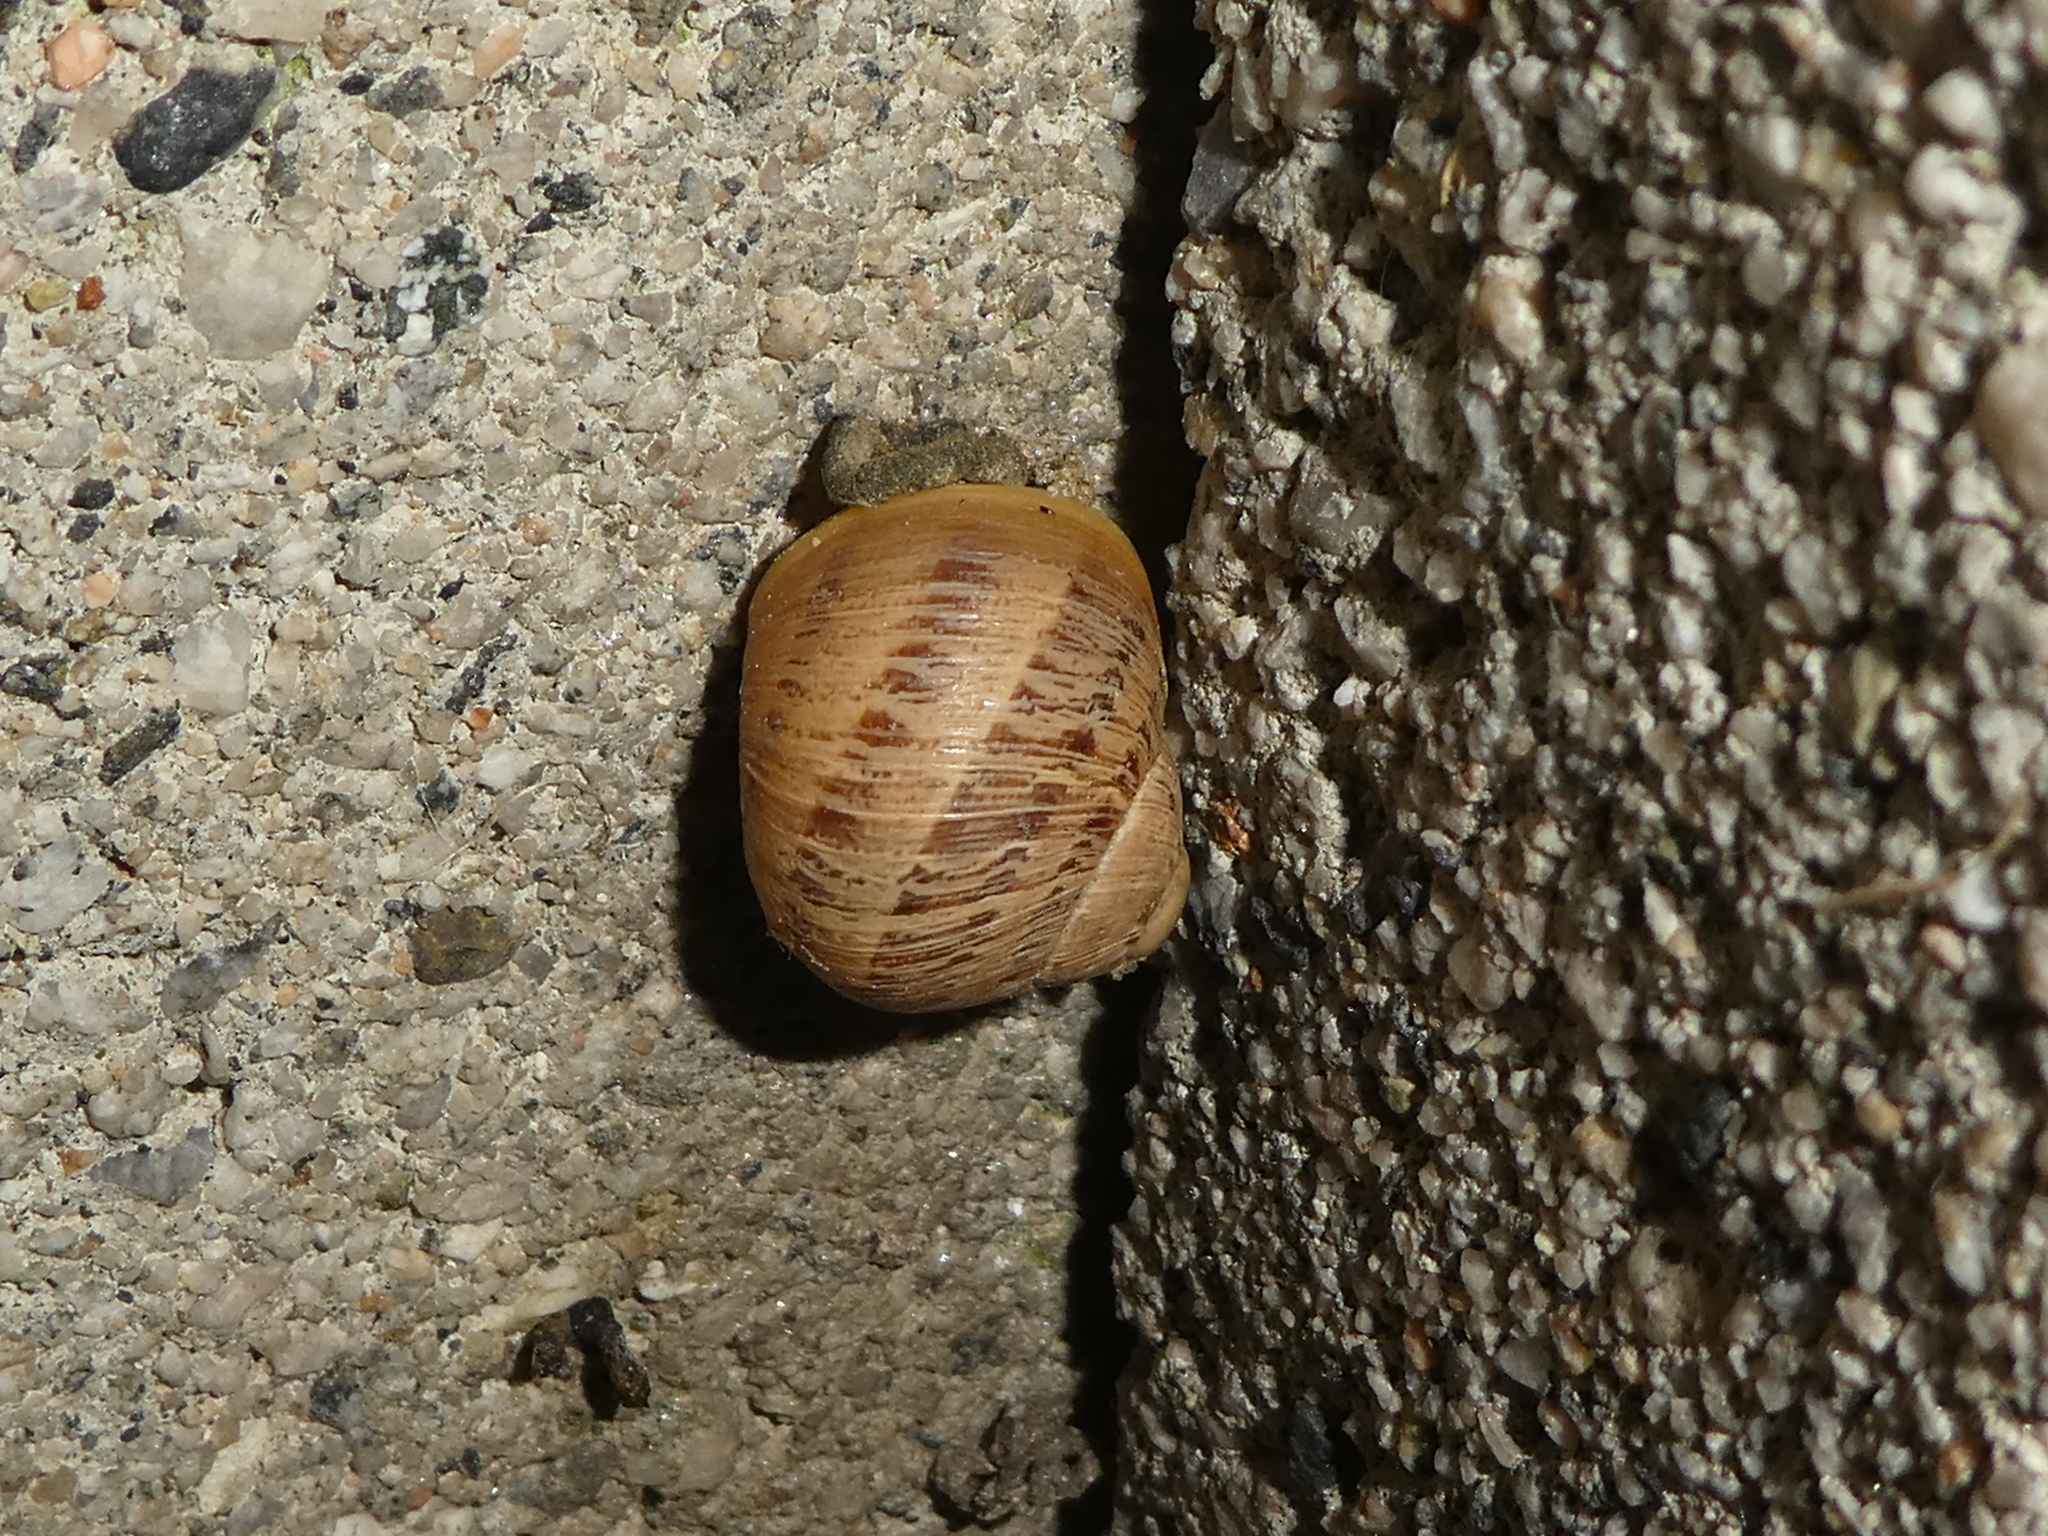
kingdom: Animalia
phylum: Mollusca
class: Gastropoda
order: Stylommatophora
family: Helicidae
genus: Cornu
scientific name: Cornu aspersum
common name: Brown garden snail
